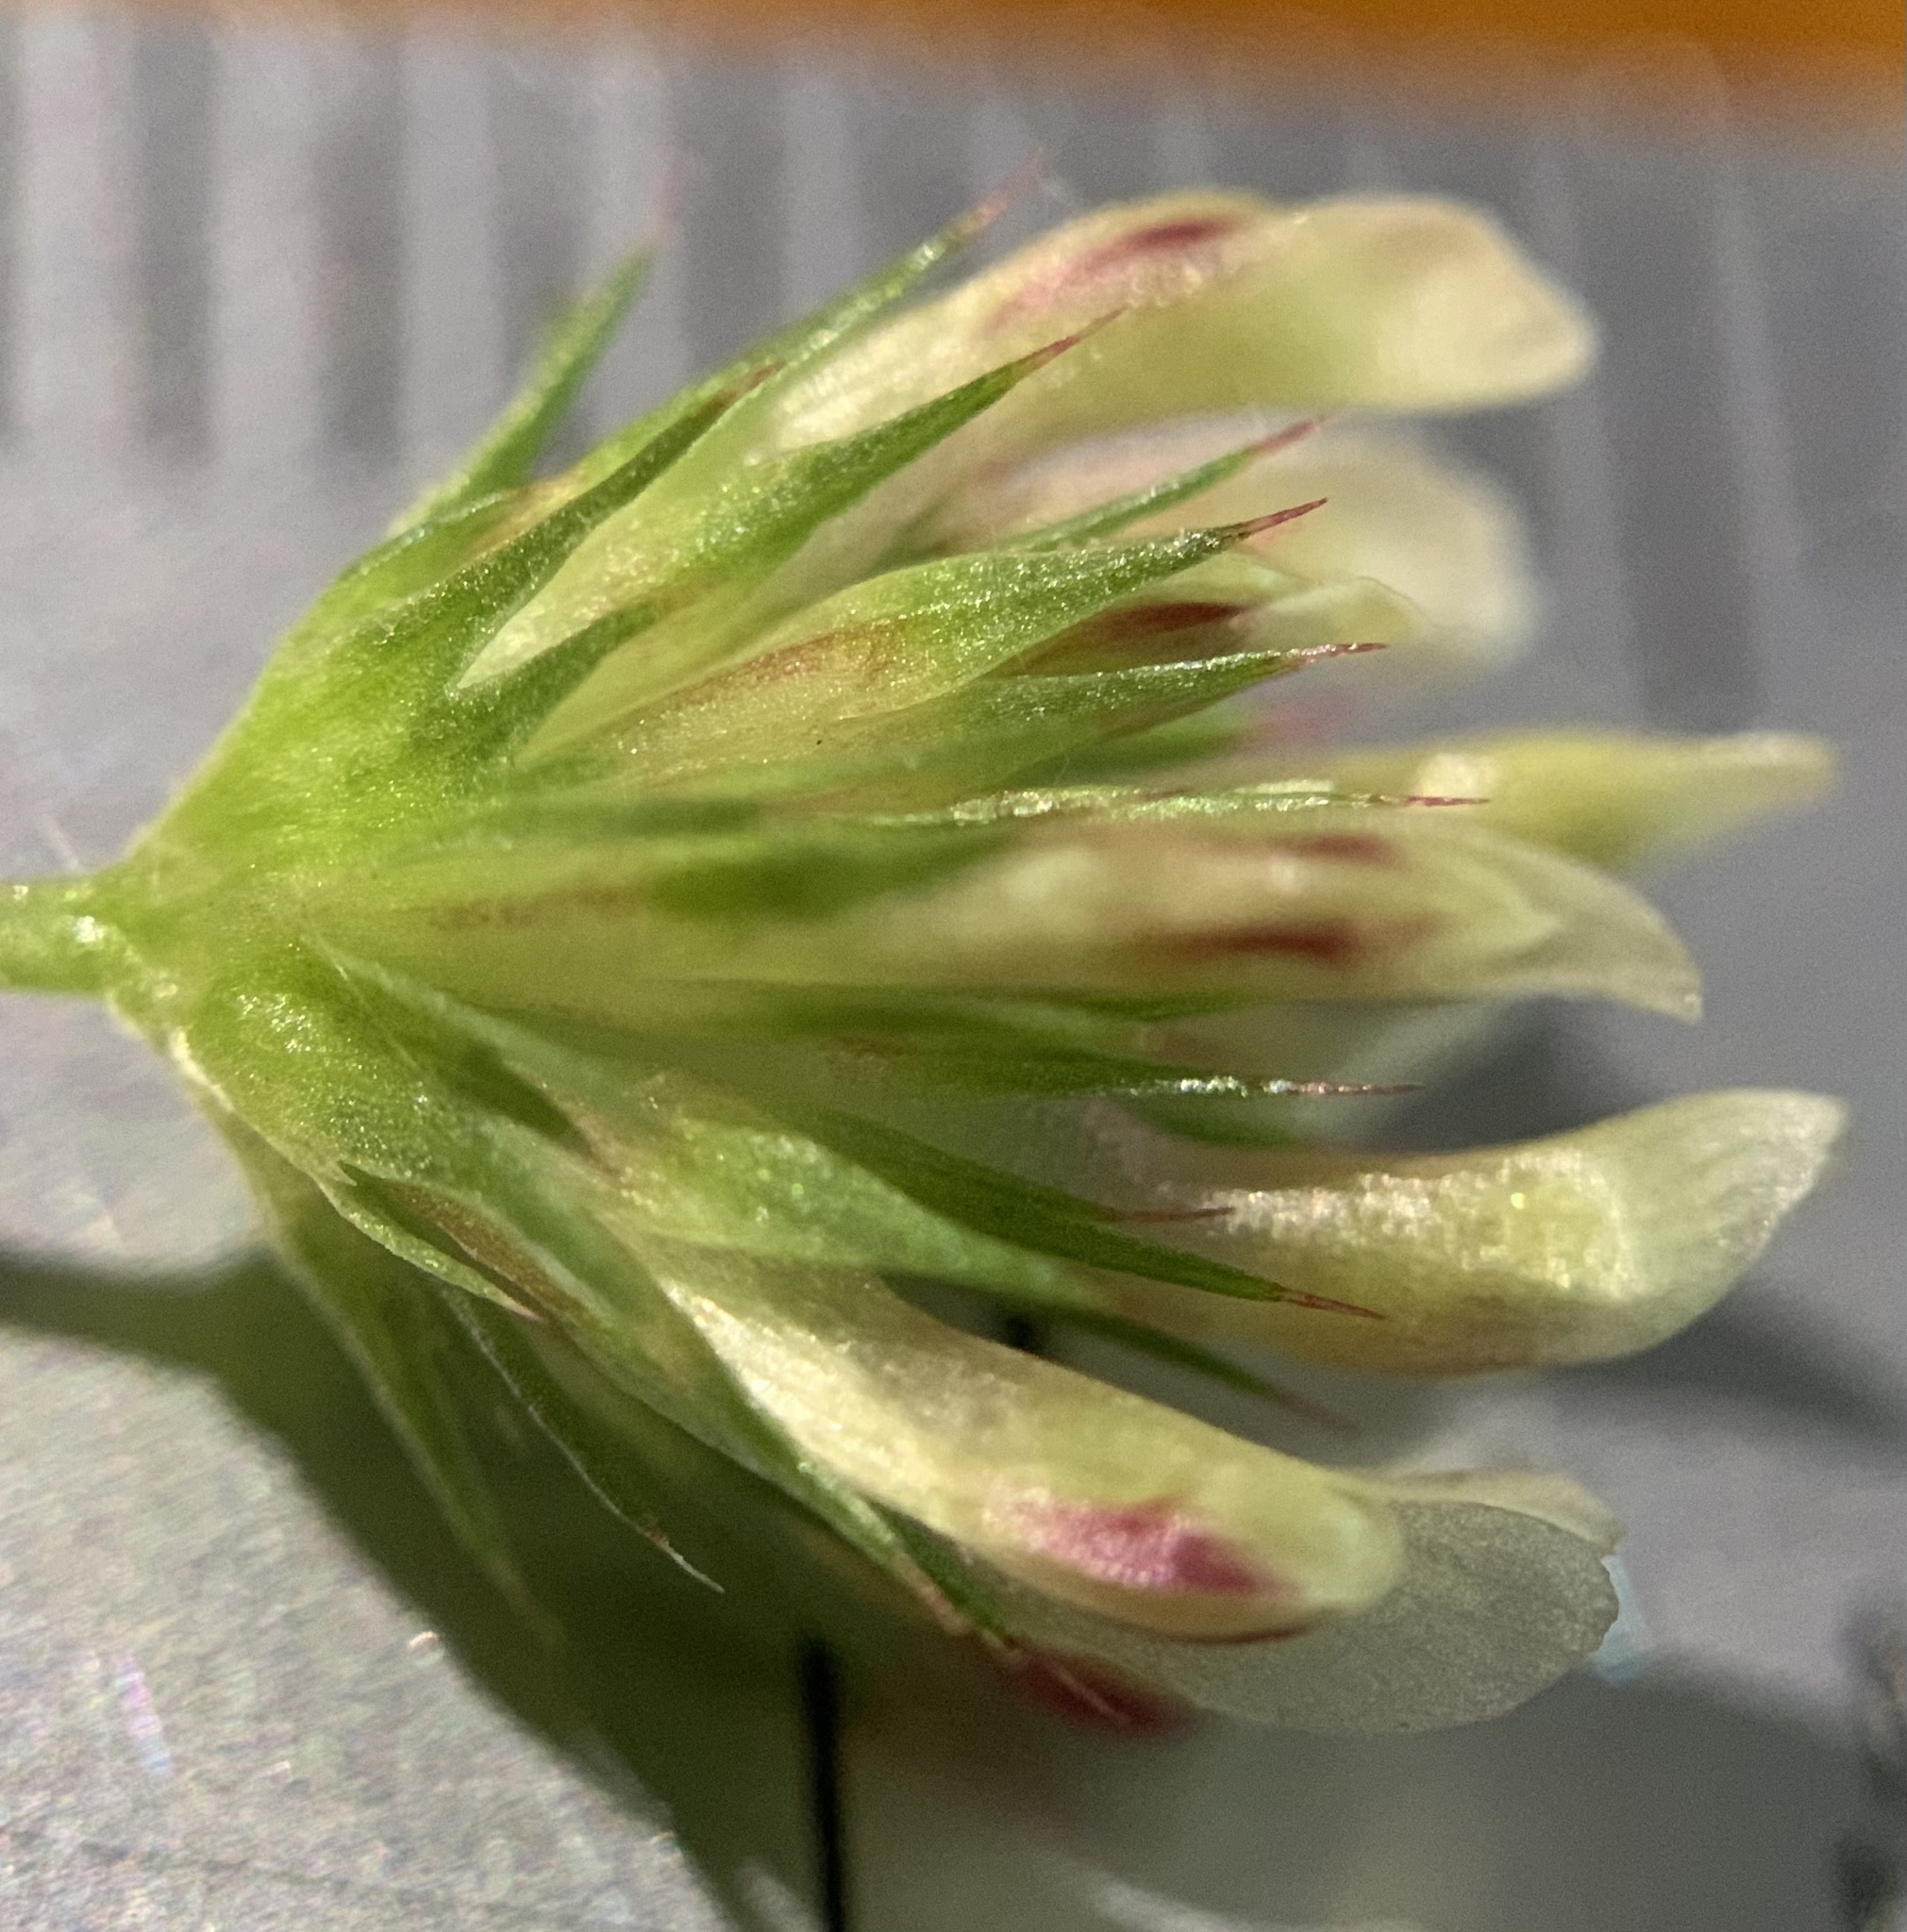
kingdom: Plantae
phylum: Tracheophyta
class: Magnoliopsida
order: Fabales
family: Fabaceae
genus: Trifolium
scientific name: Trifolium variegatum
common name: Whitetip clover
